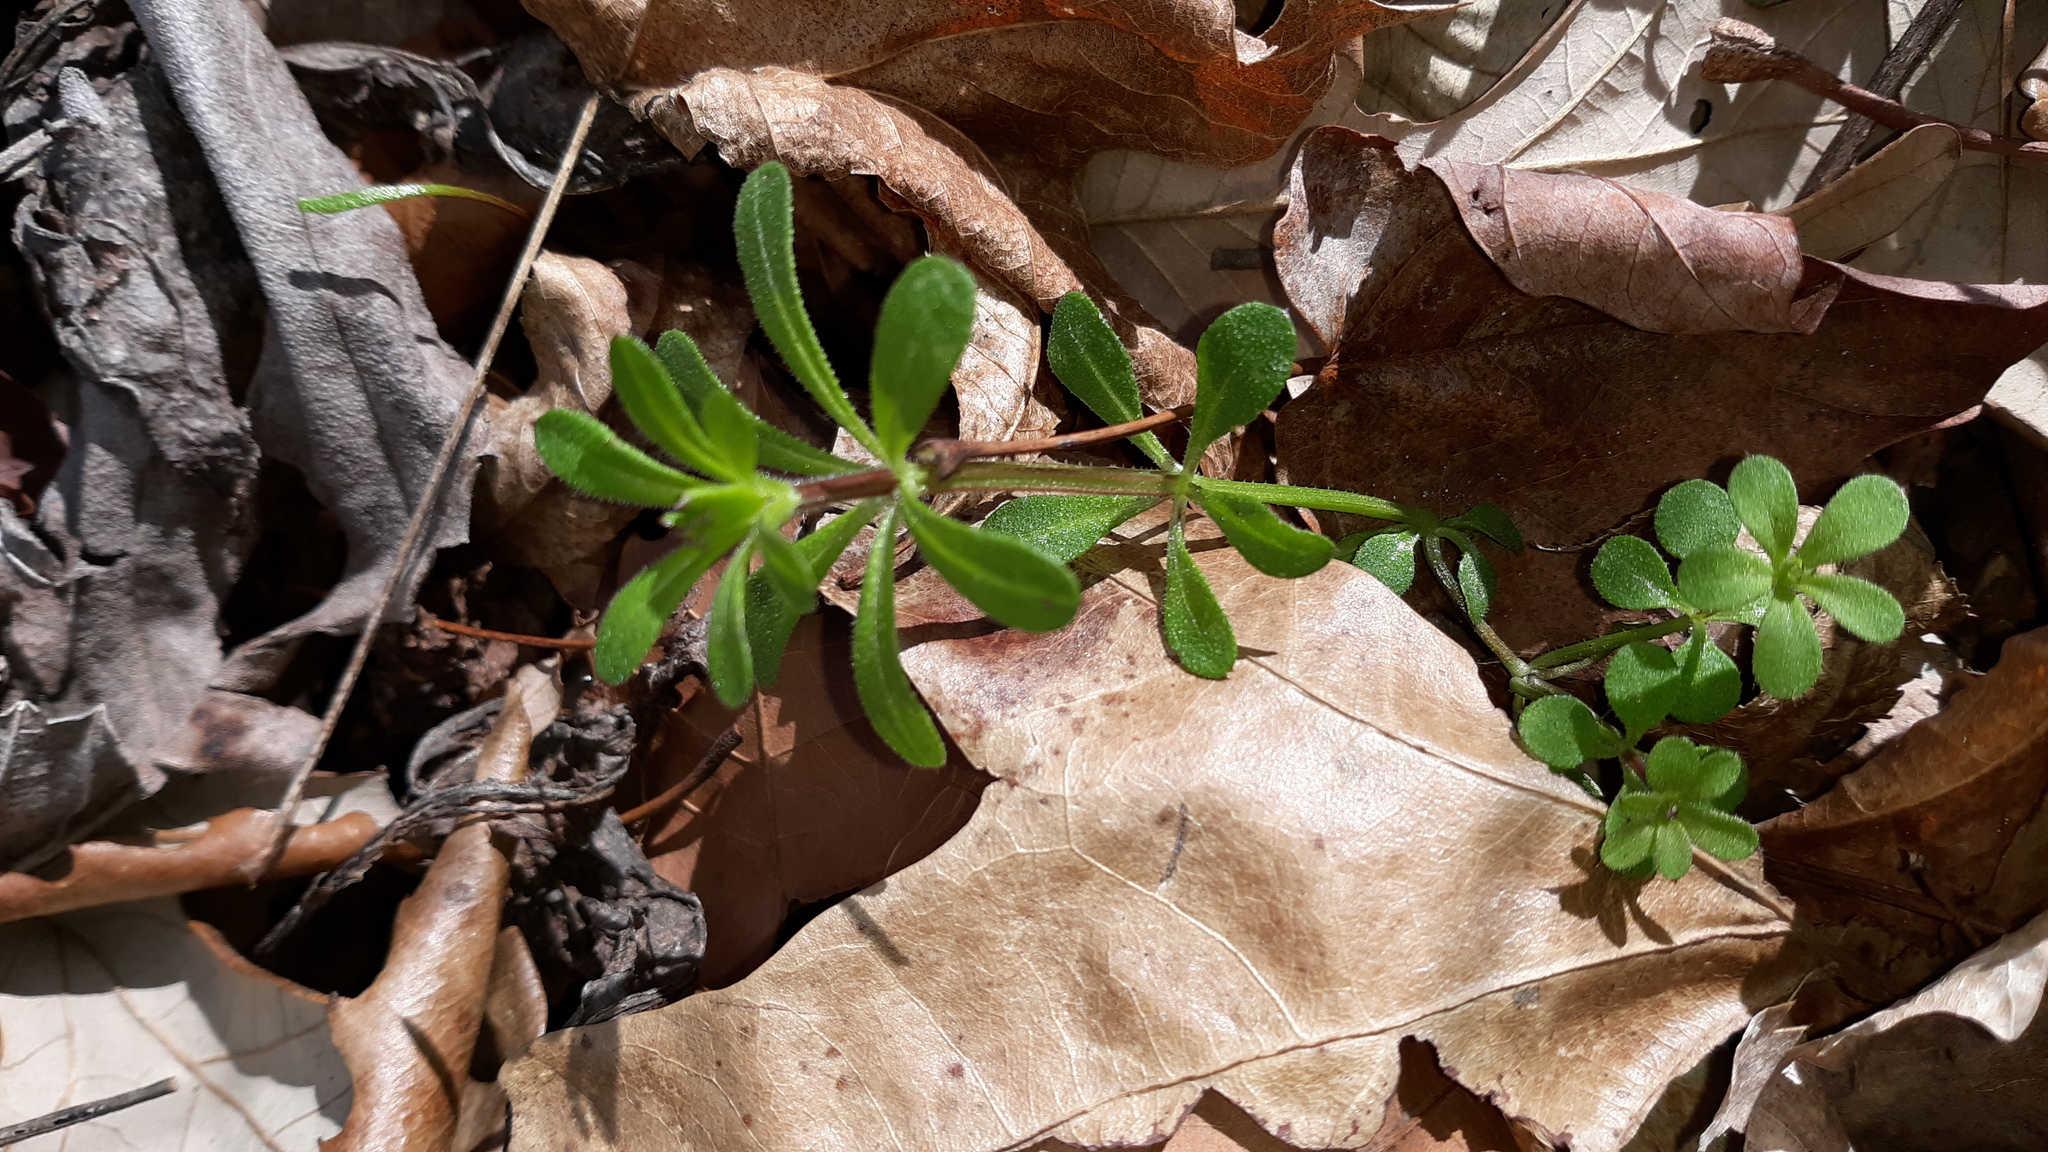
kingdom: Plantae
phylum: Tracheophyta
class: Magnoliopsida
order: Gentianales
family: Rubiaceae
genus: Galium
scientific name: Galium aparine
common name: Cleavers
